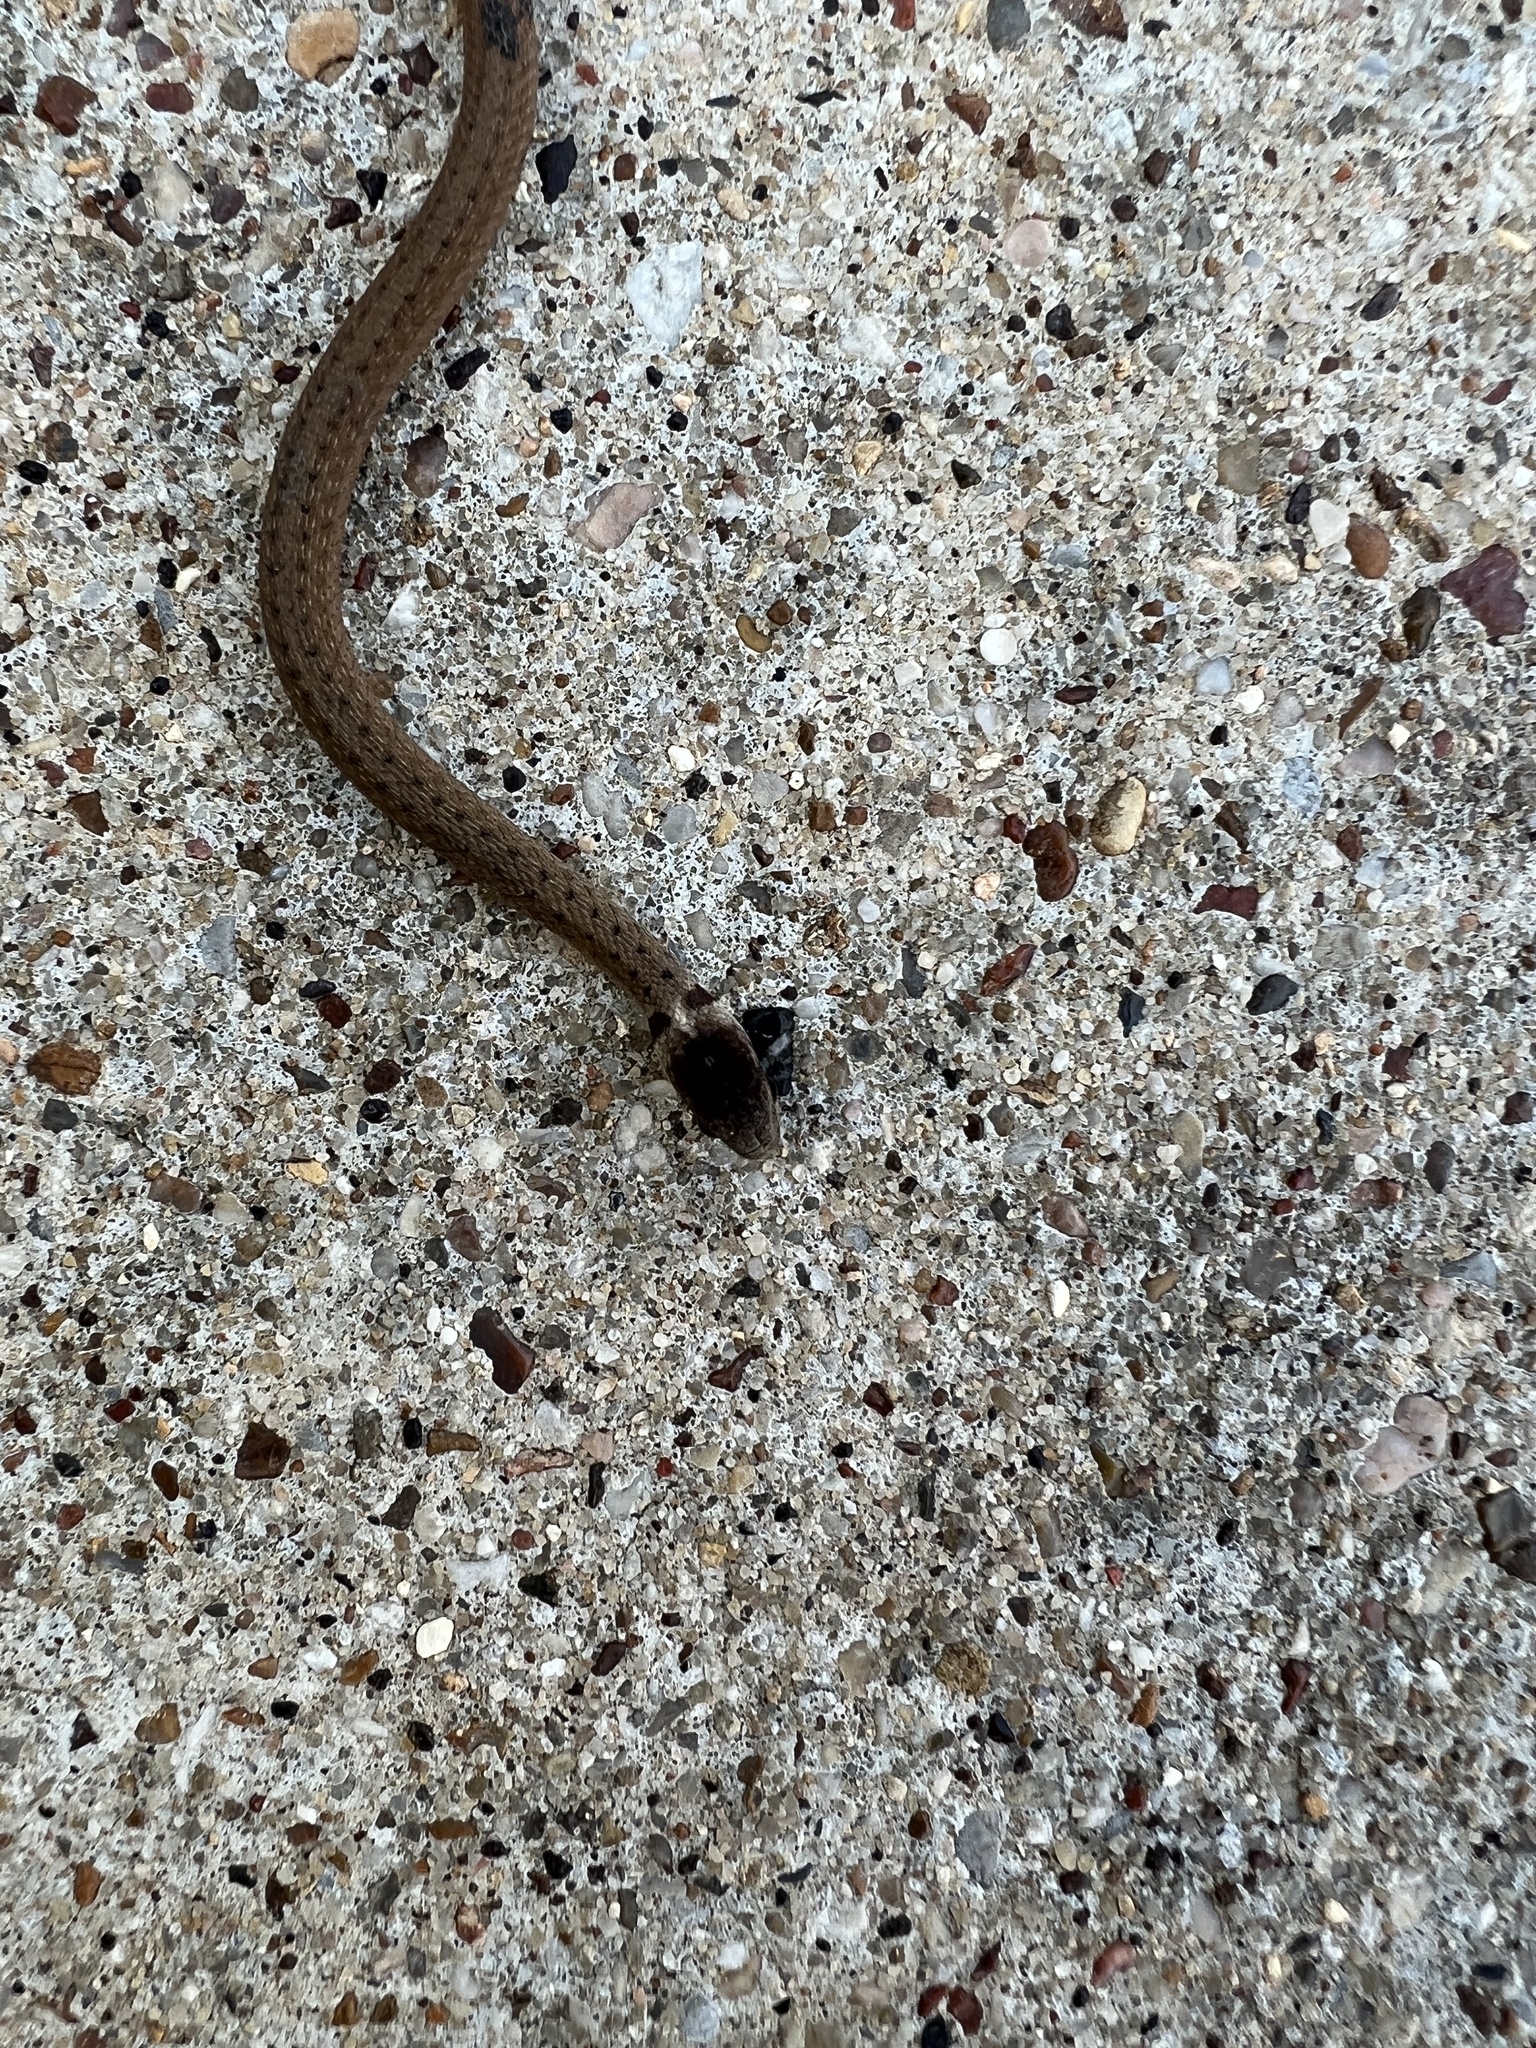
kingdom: Animalia
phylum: Chordata
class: Squamata
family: Colubridae
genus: Storeria
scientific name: Storeria dekayi
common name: (dekay’s) brown snake
